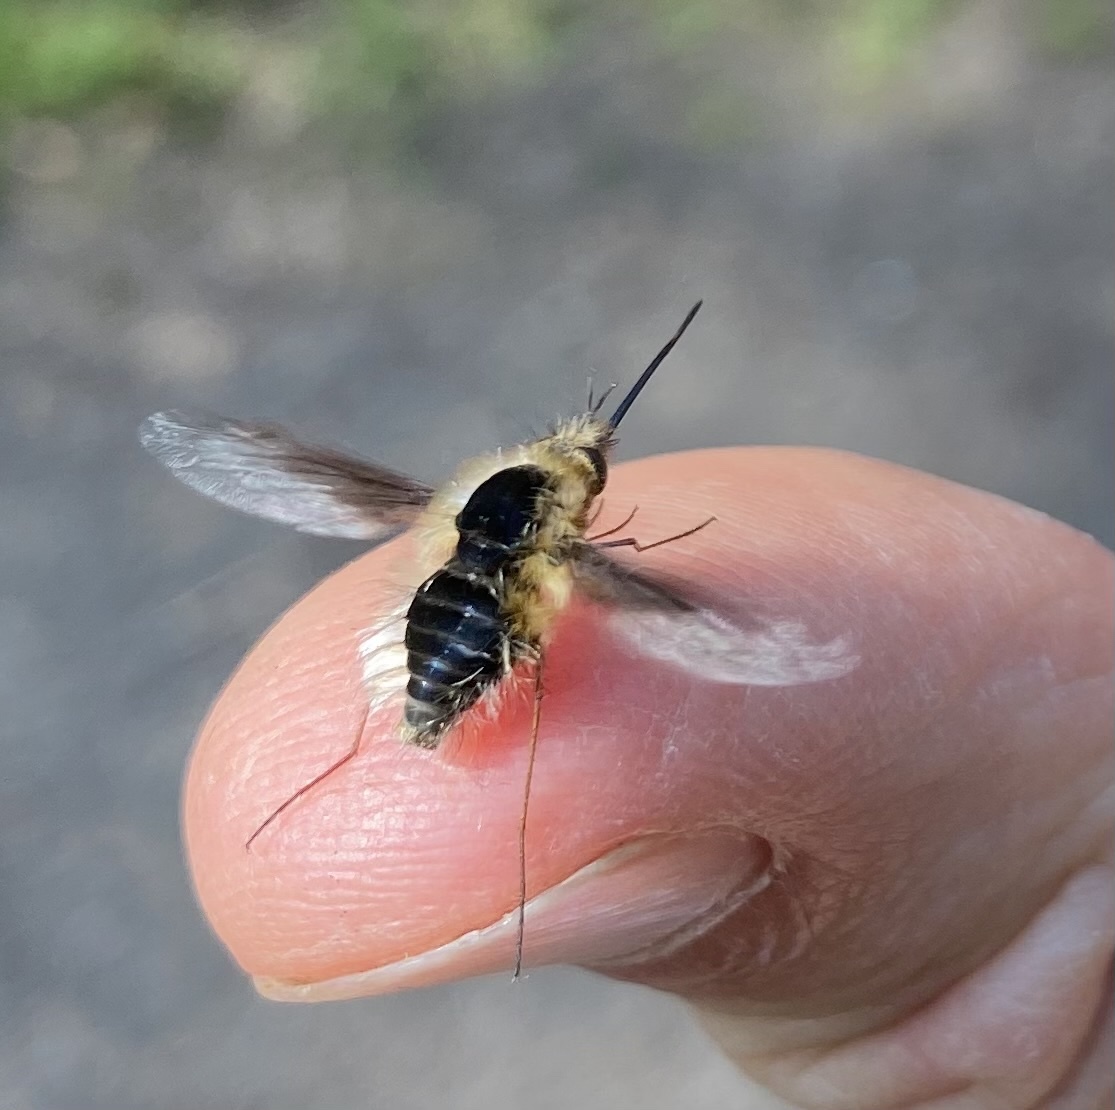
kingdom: Animalia
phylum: Arthropoda
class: Insecta
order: Diptera
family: Bombyliidae
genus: Bombylius
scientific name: Bombylius major
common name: Bee fly
